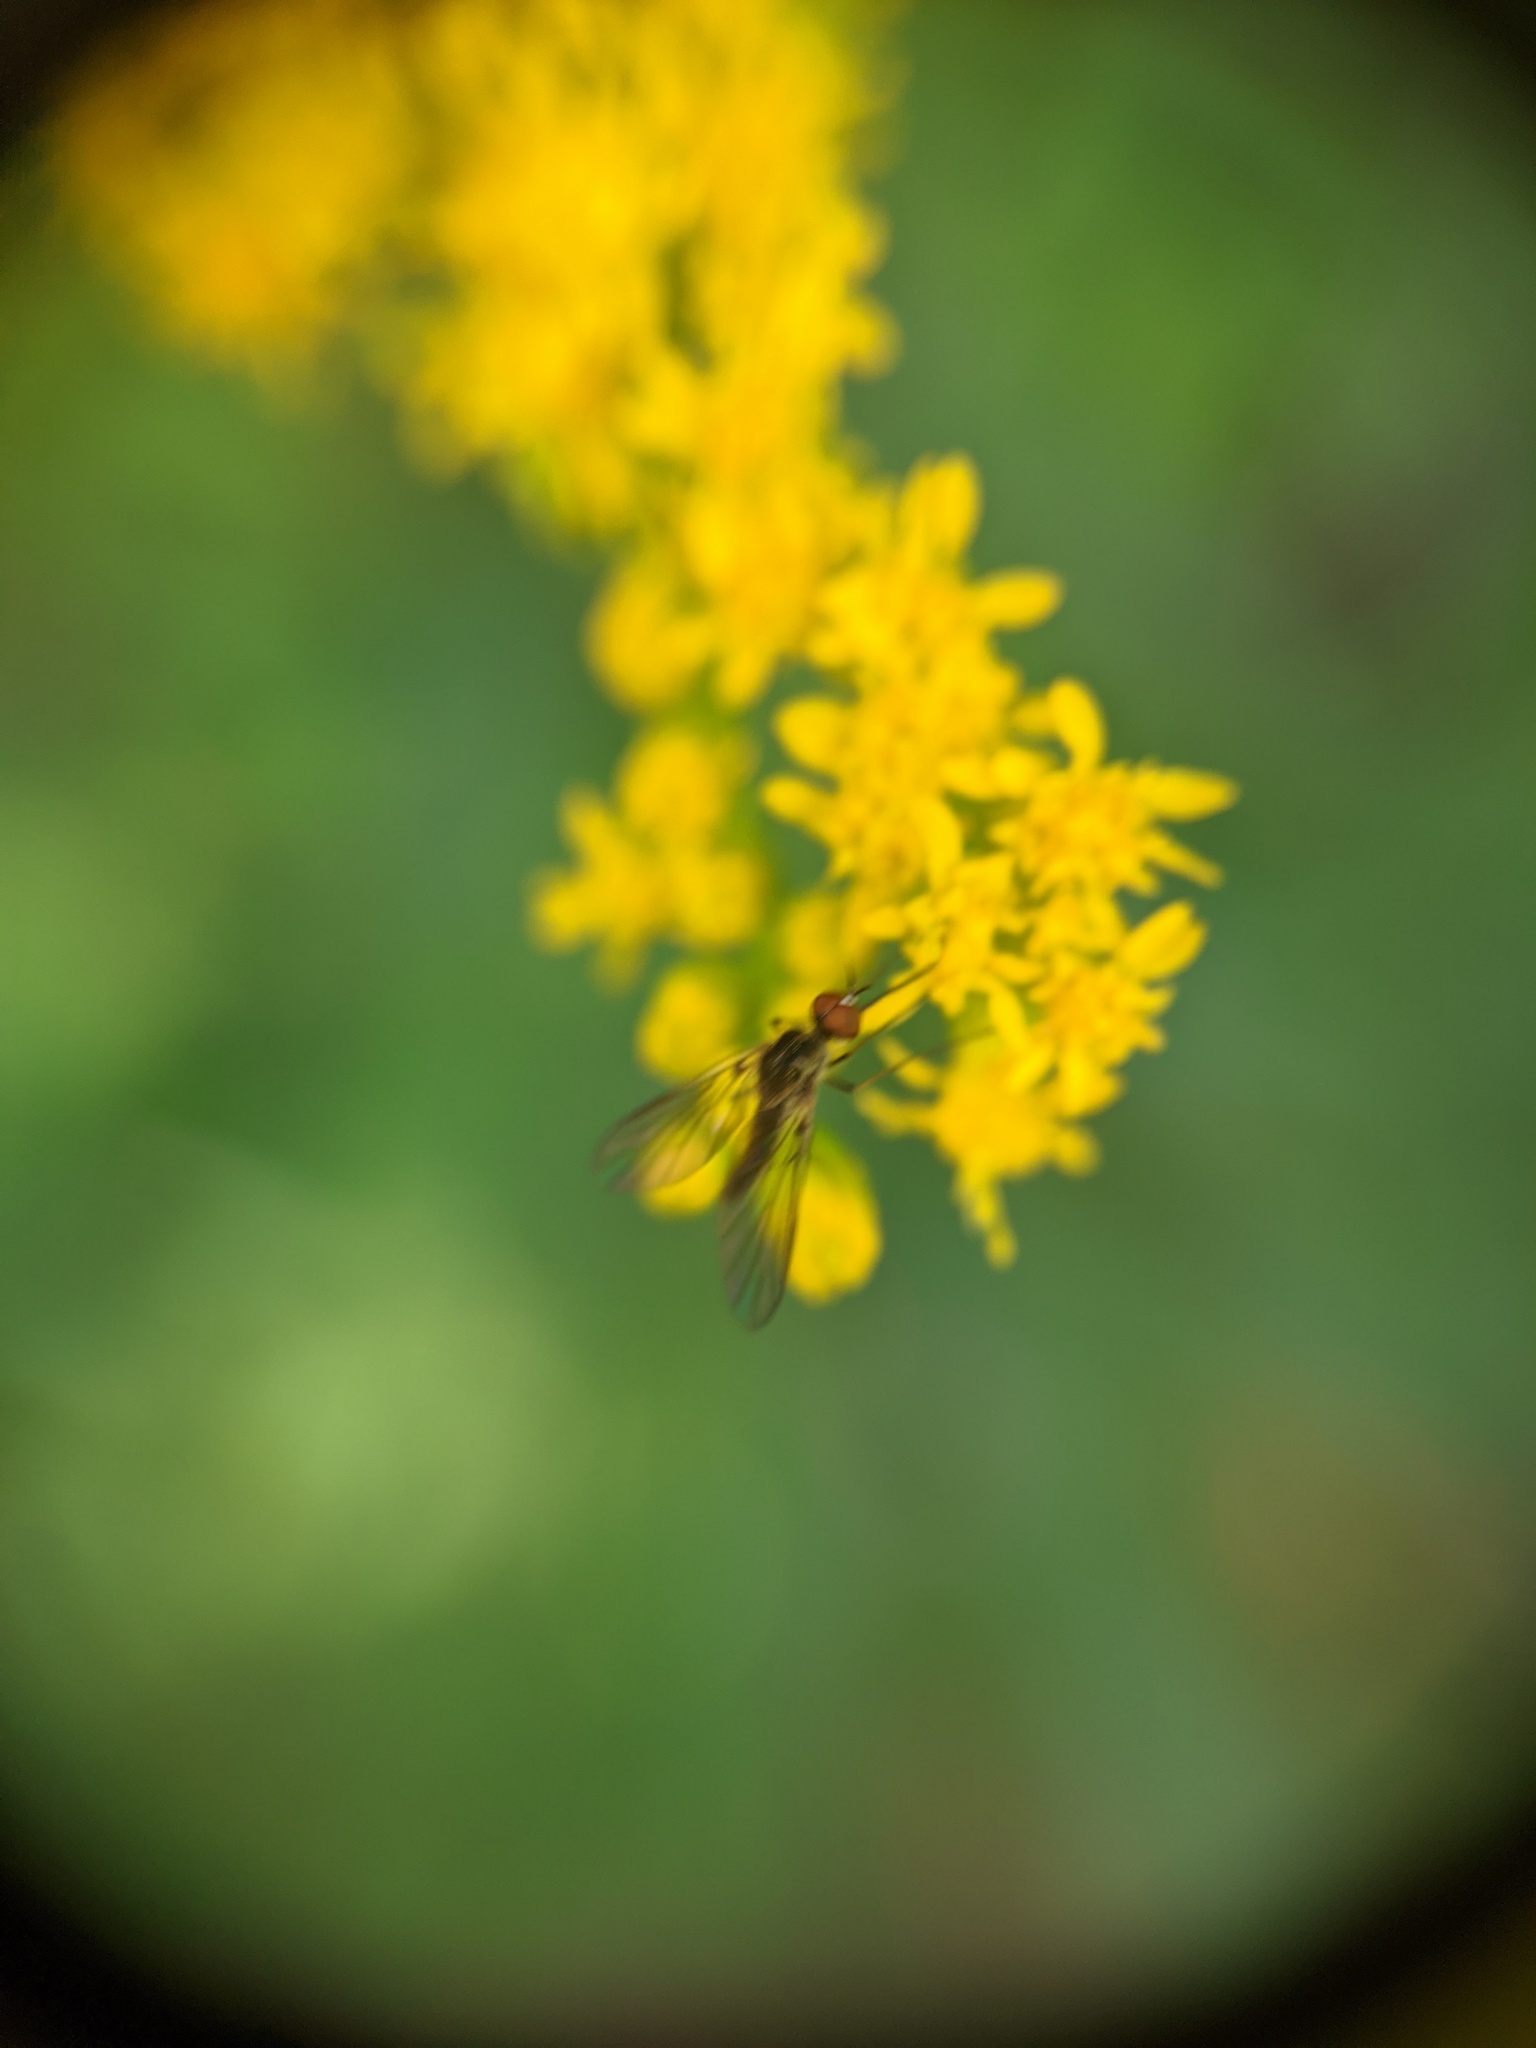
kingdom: Animalia
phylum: Arthropoda
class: Insecta
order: Diptera
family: Bombyliidae
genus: Geron
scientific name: Geron
